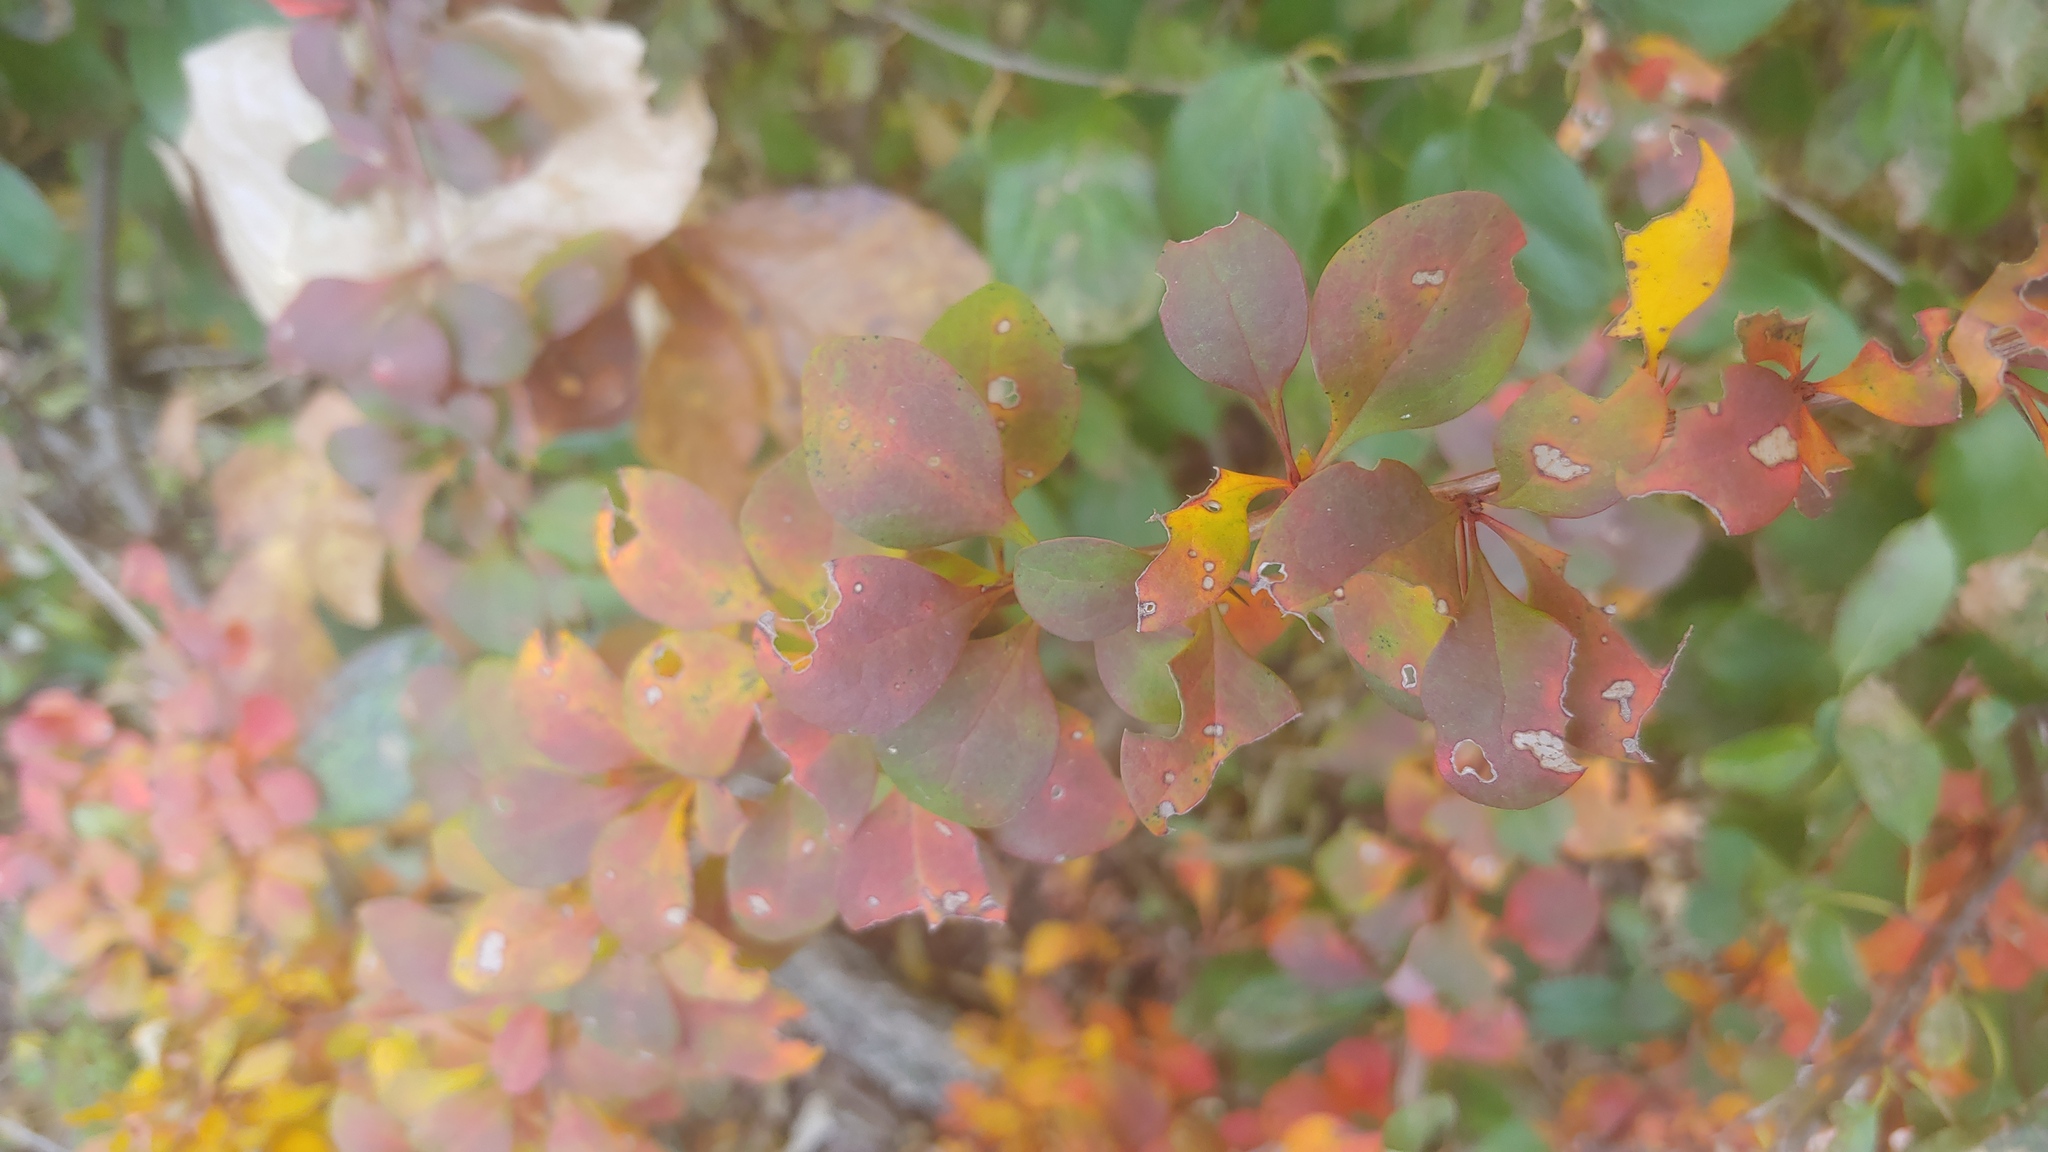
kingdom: Plantae
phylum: Tracheophyta
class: Magnoliopsida
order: Ranunculales
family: Berberidaceae
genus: Berberis
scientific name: Berberis thunbergii
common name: Japanese barberry
